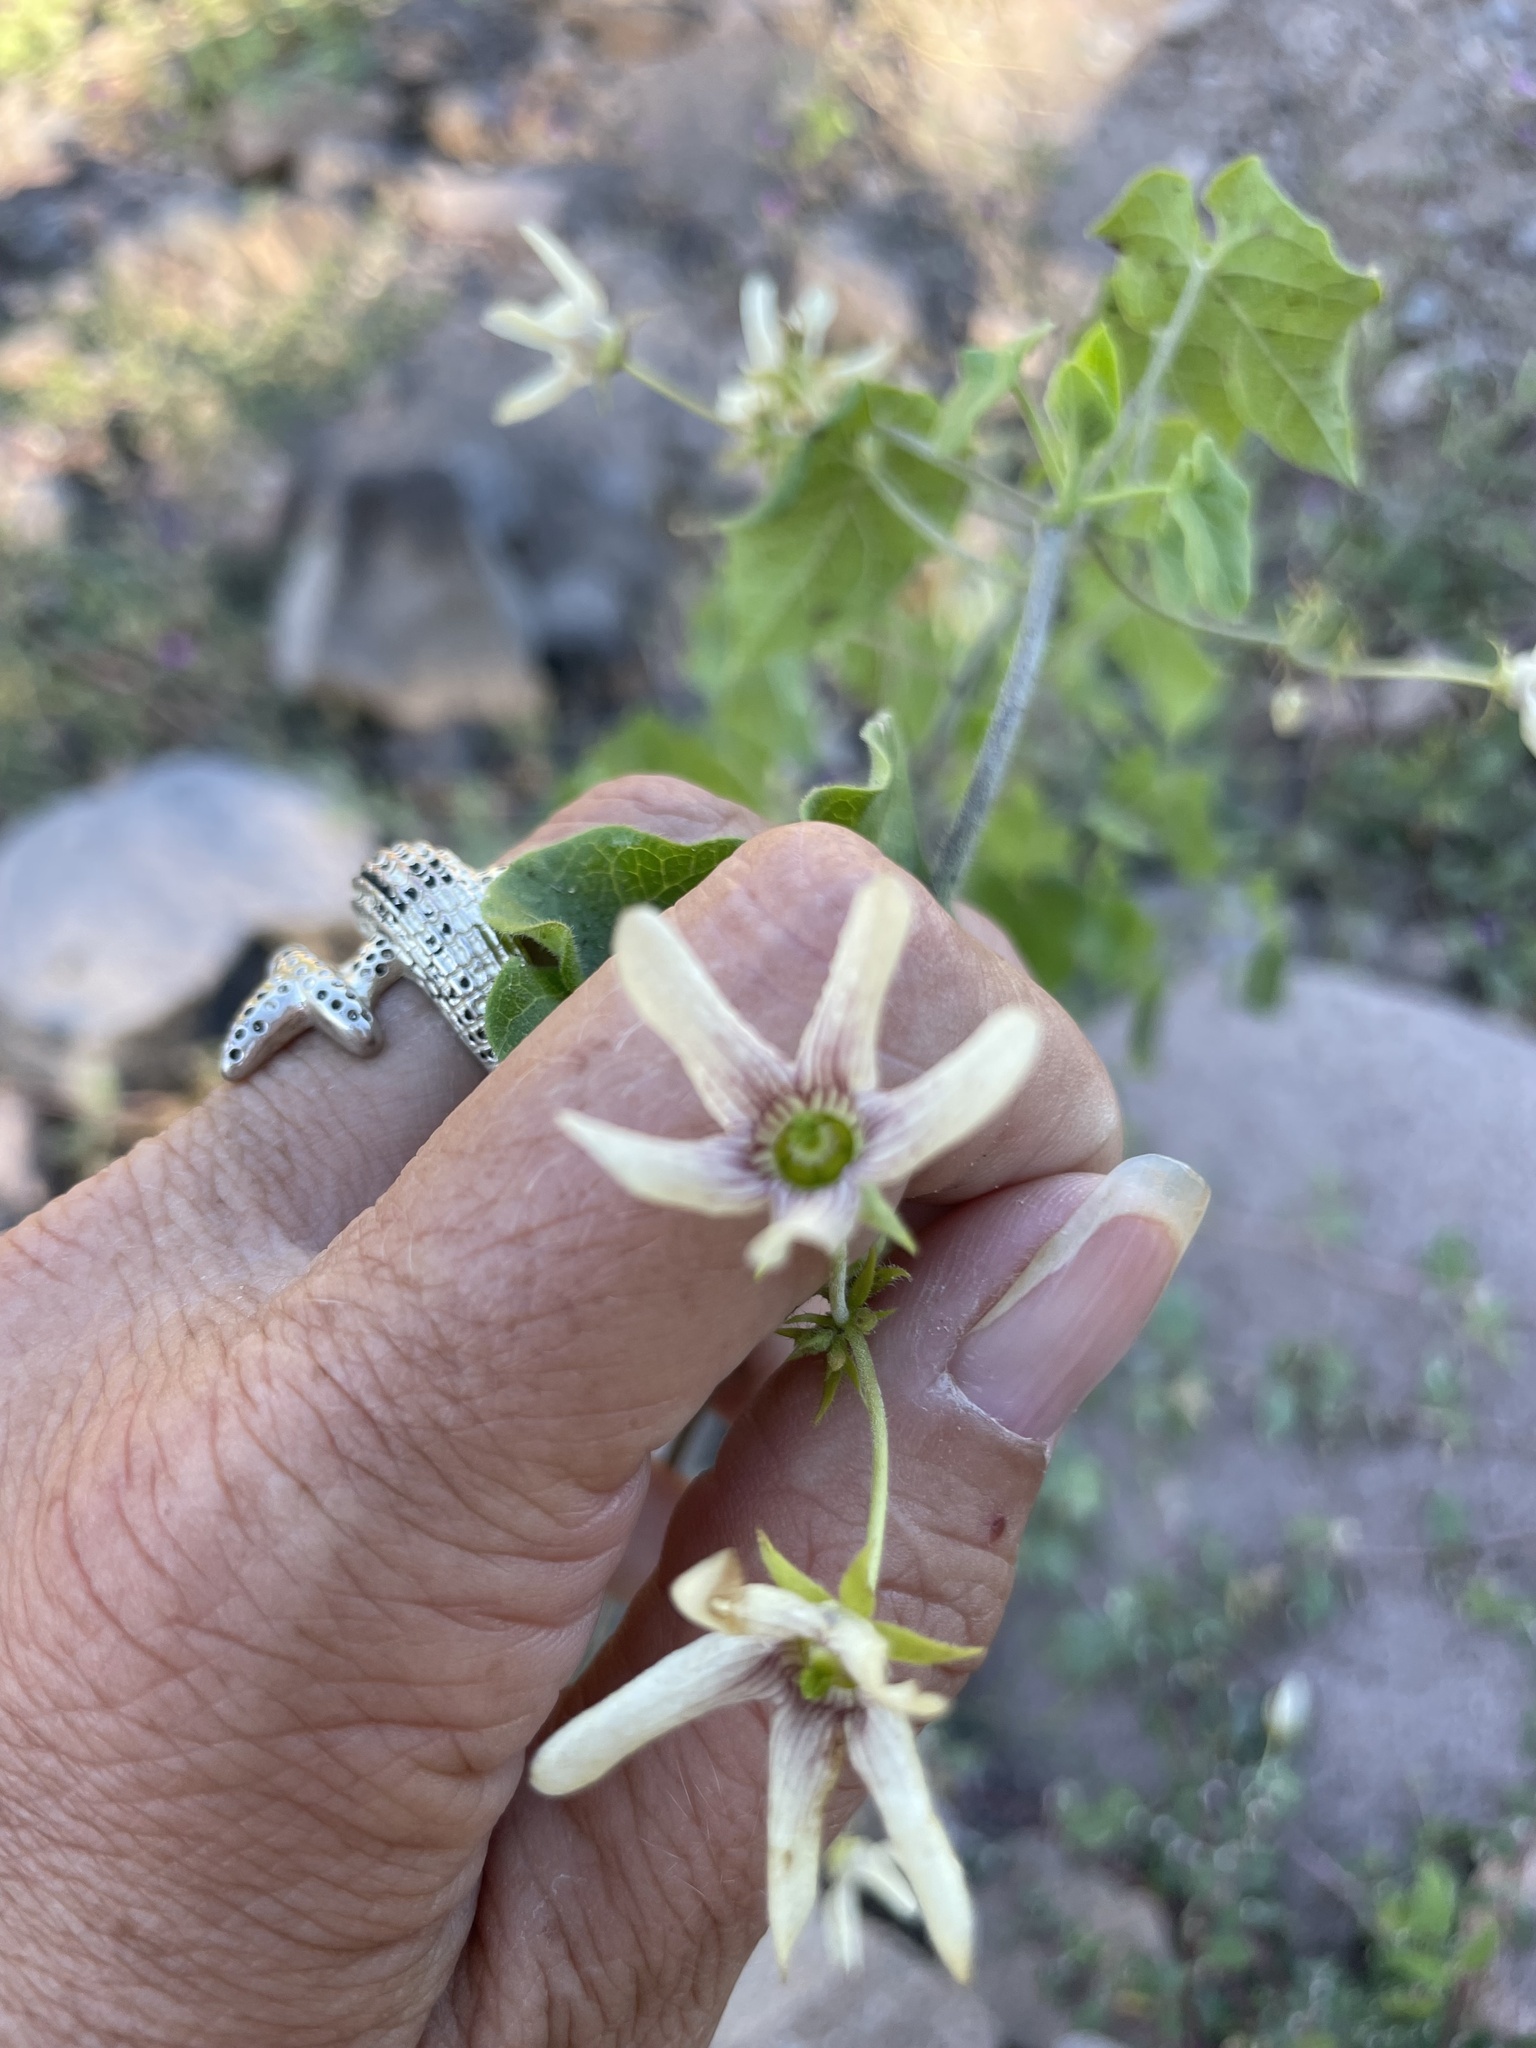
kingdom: Plantae
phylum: Tracheophyta
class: Magnoliopsida
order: Gentianales
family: Apocynaceae
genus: Polystemma
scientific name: Polystemma cordifolium
